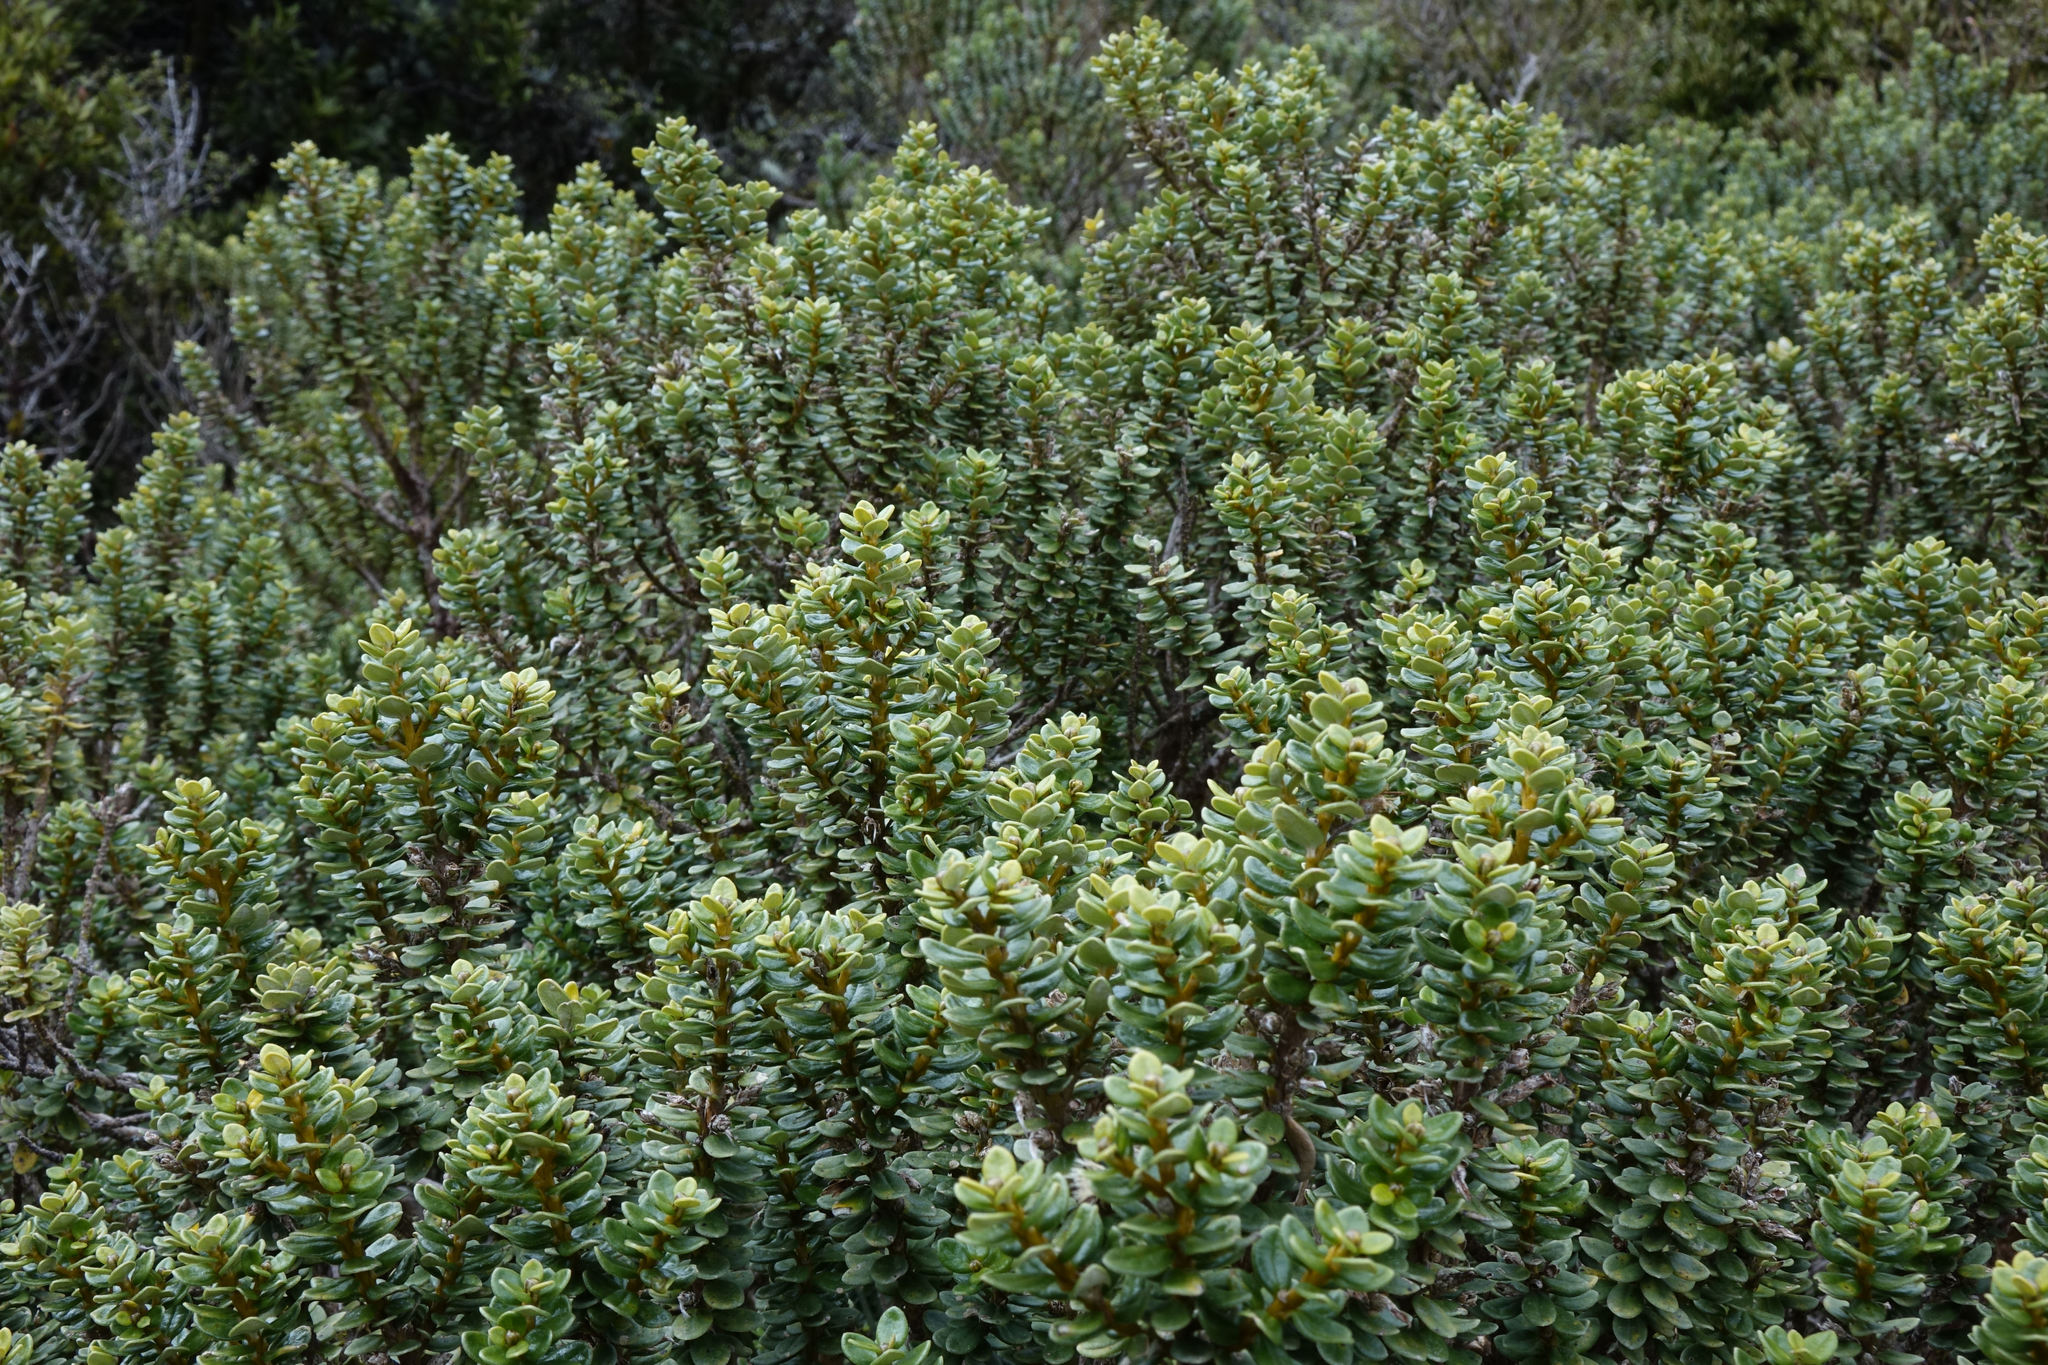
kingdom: Plantae
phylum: Tracheophyta
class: Magnoliopsida
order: Asterales
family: Asteraceae
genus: Olearia
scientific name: Olearia nummularifolia
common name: Sticky daisybush
